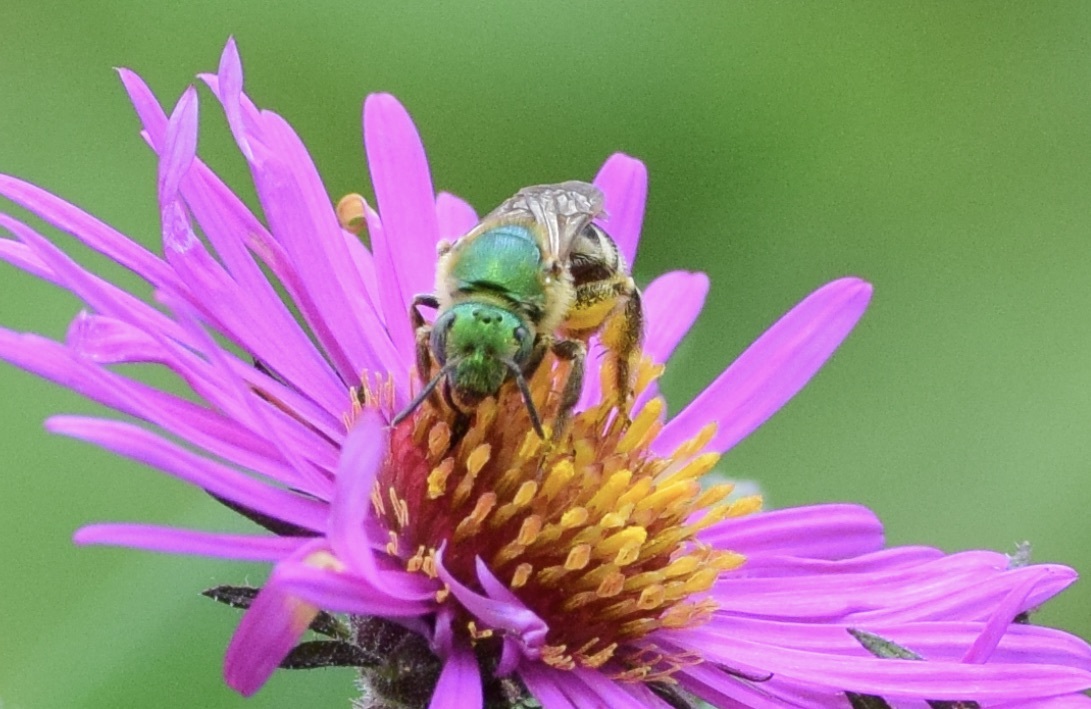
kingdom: Animalia
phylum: Arthropoda
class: Insecta
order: Hymenoptera
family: Halictidae
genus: Agapostemon
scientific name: Agapostemon virescens
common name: Bicolored striped sweat bee
